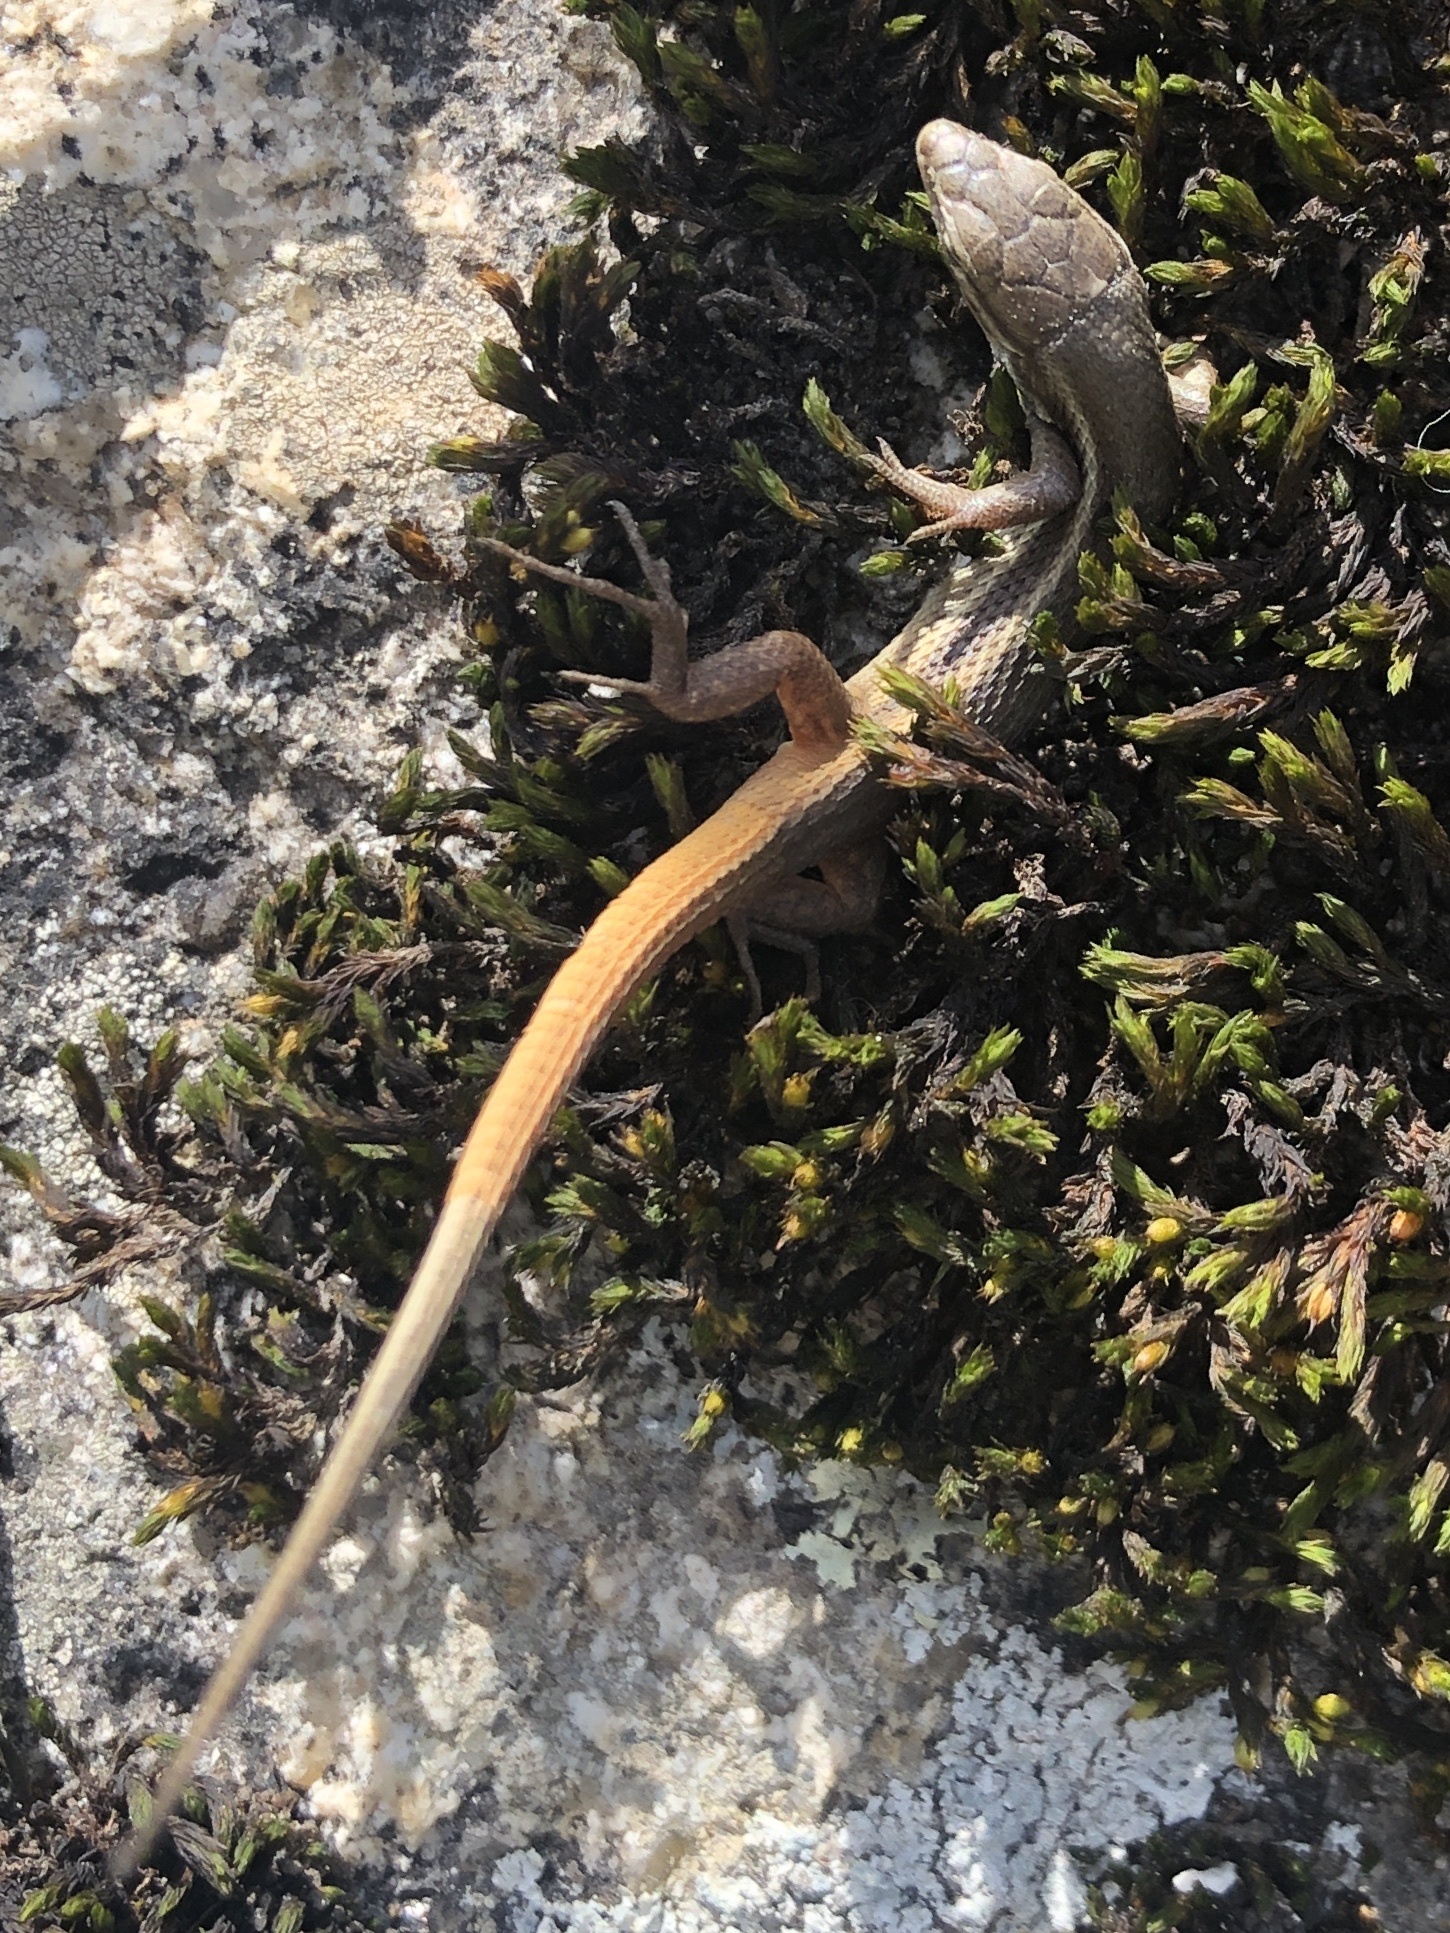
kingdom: Animalia
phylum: Chordata
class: Squamata
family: Lacertidae
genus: Psammodromus
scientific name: Psammodromus algirus
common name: Algerian psammodromus
